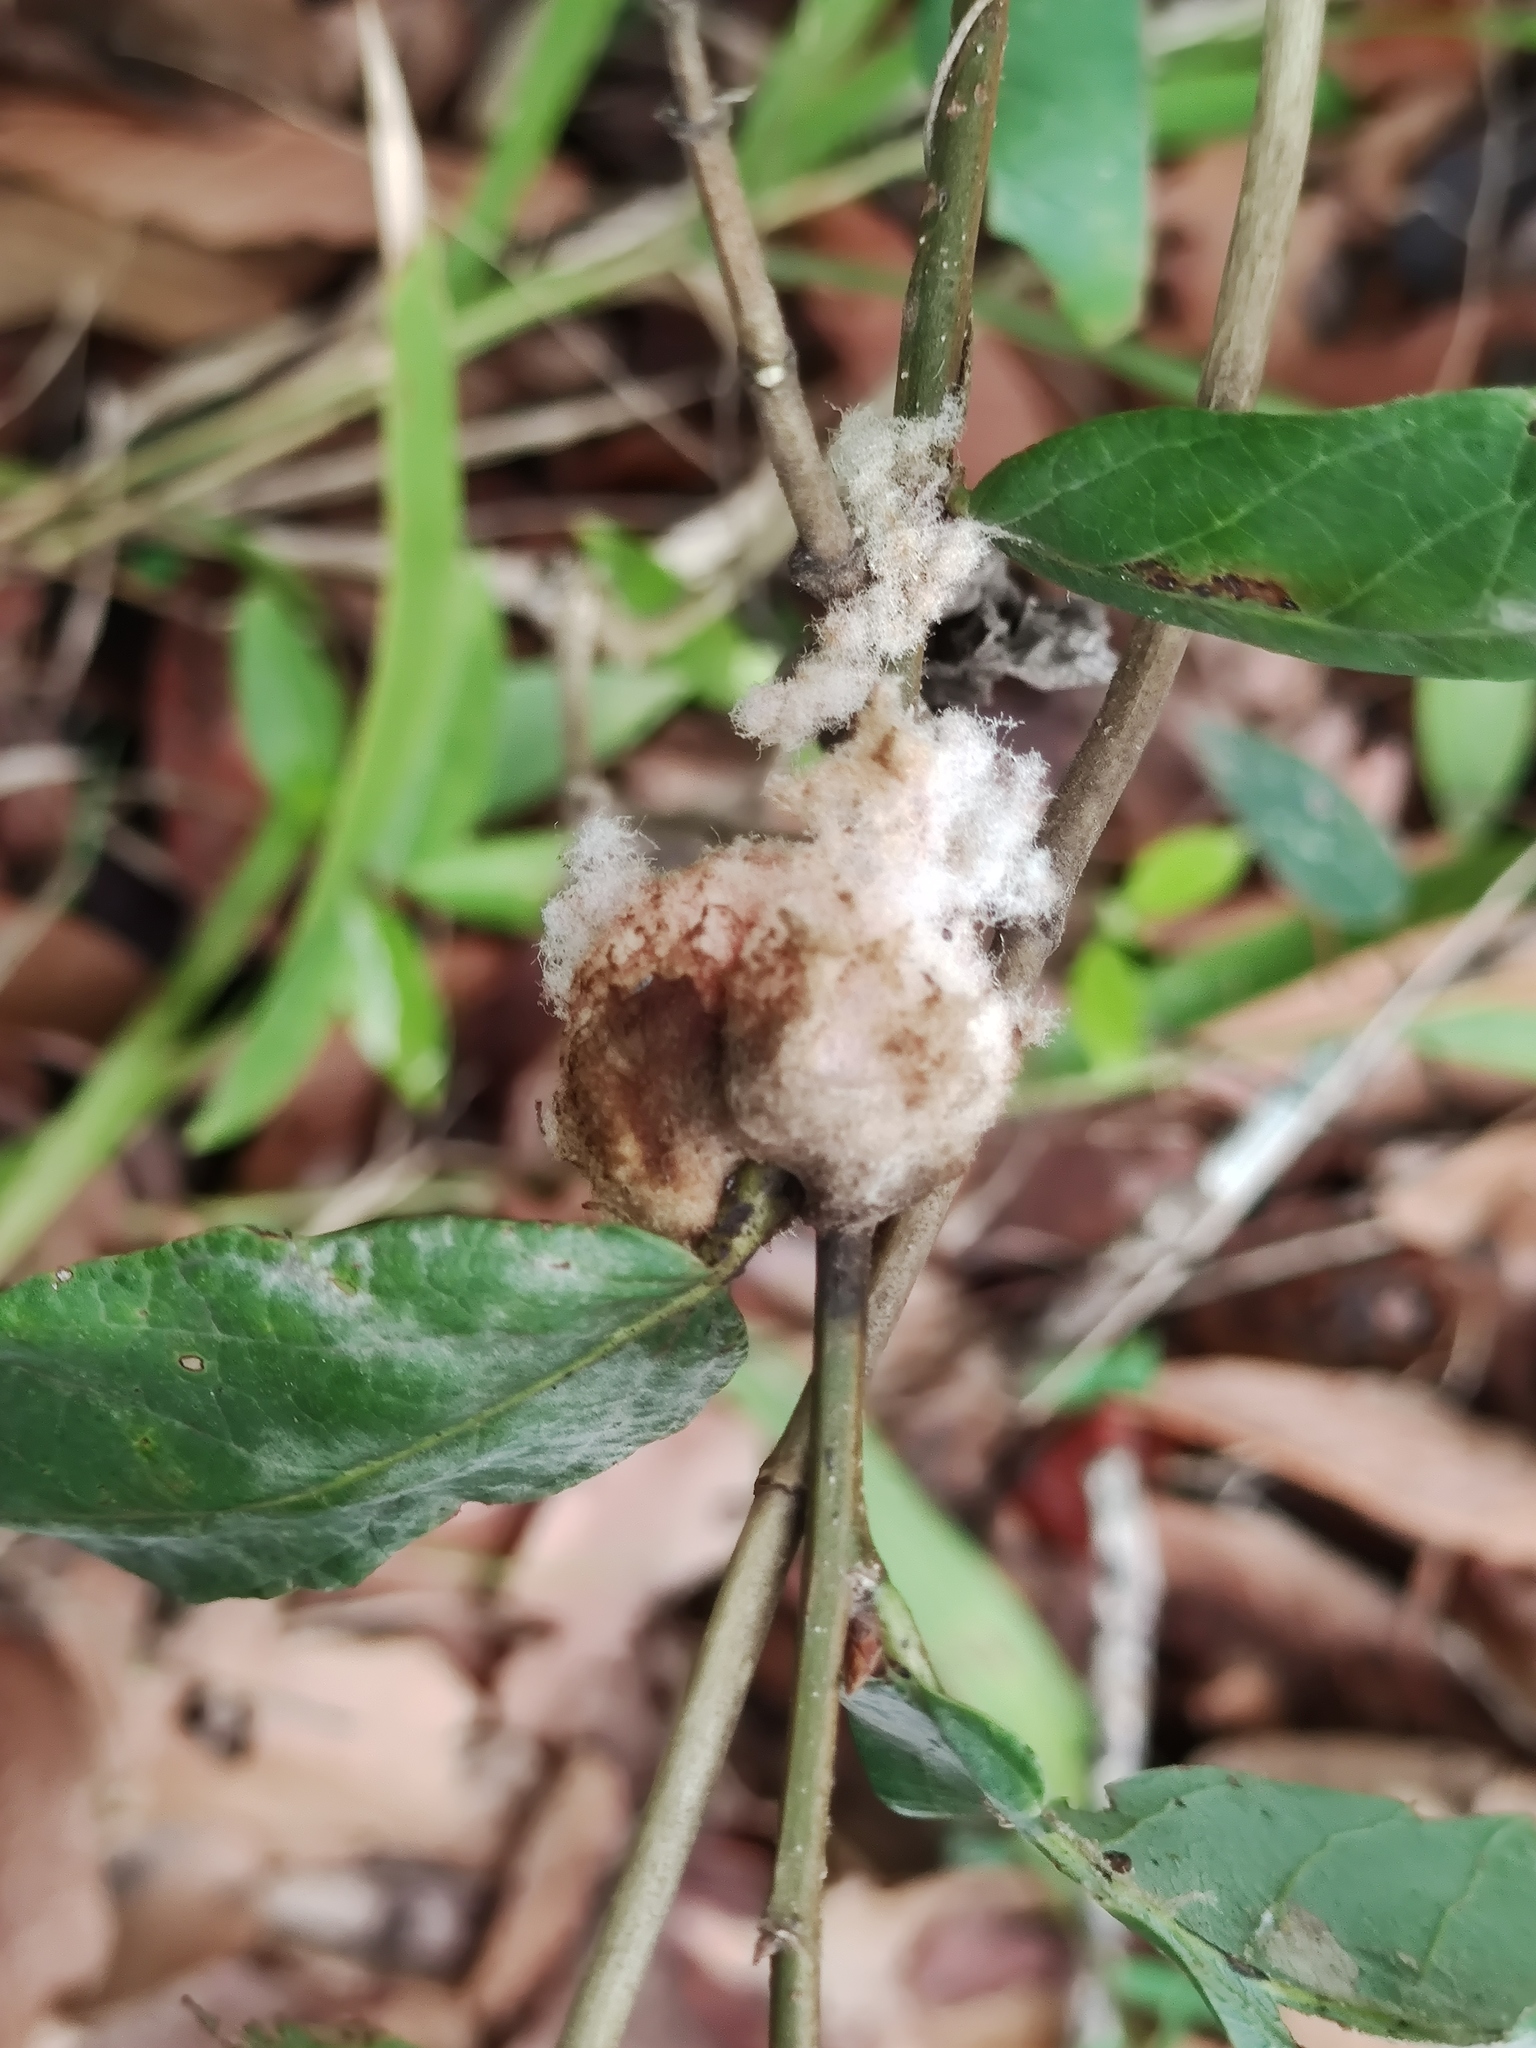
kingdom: Animalia
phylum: Arthropoda
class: Insecta
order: Hymenoptera
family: Cynipidae
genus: Striatoandricus
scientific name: Striatoandricus furnessae
